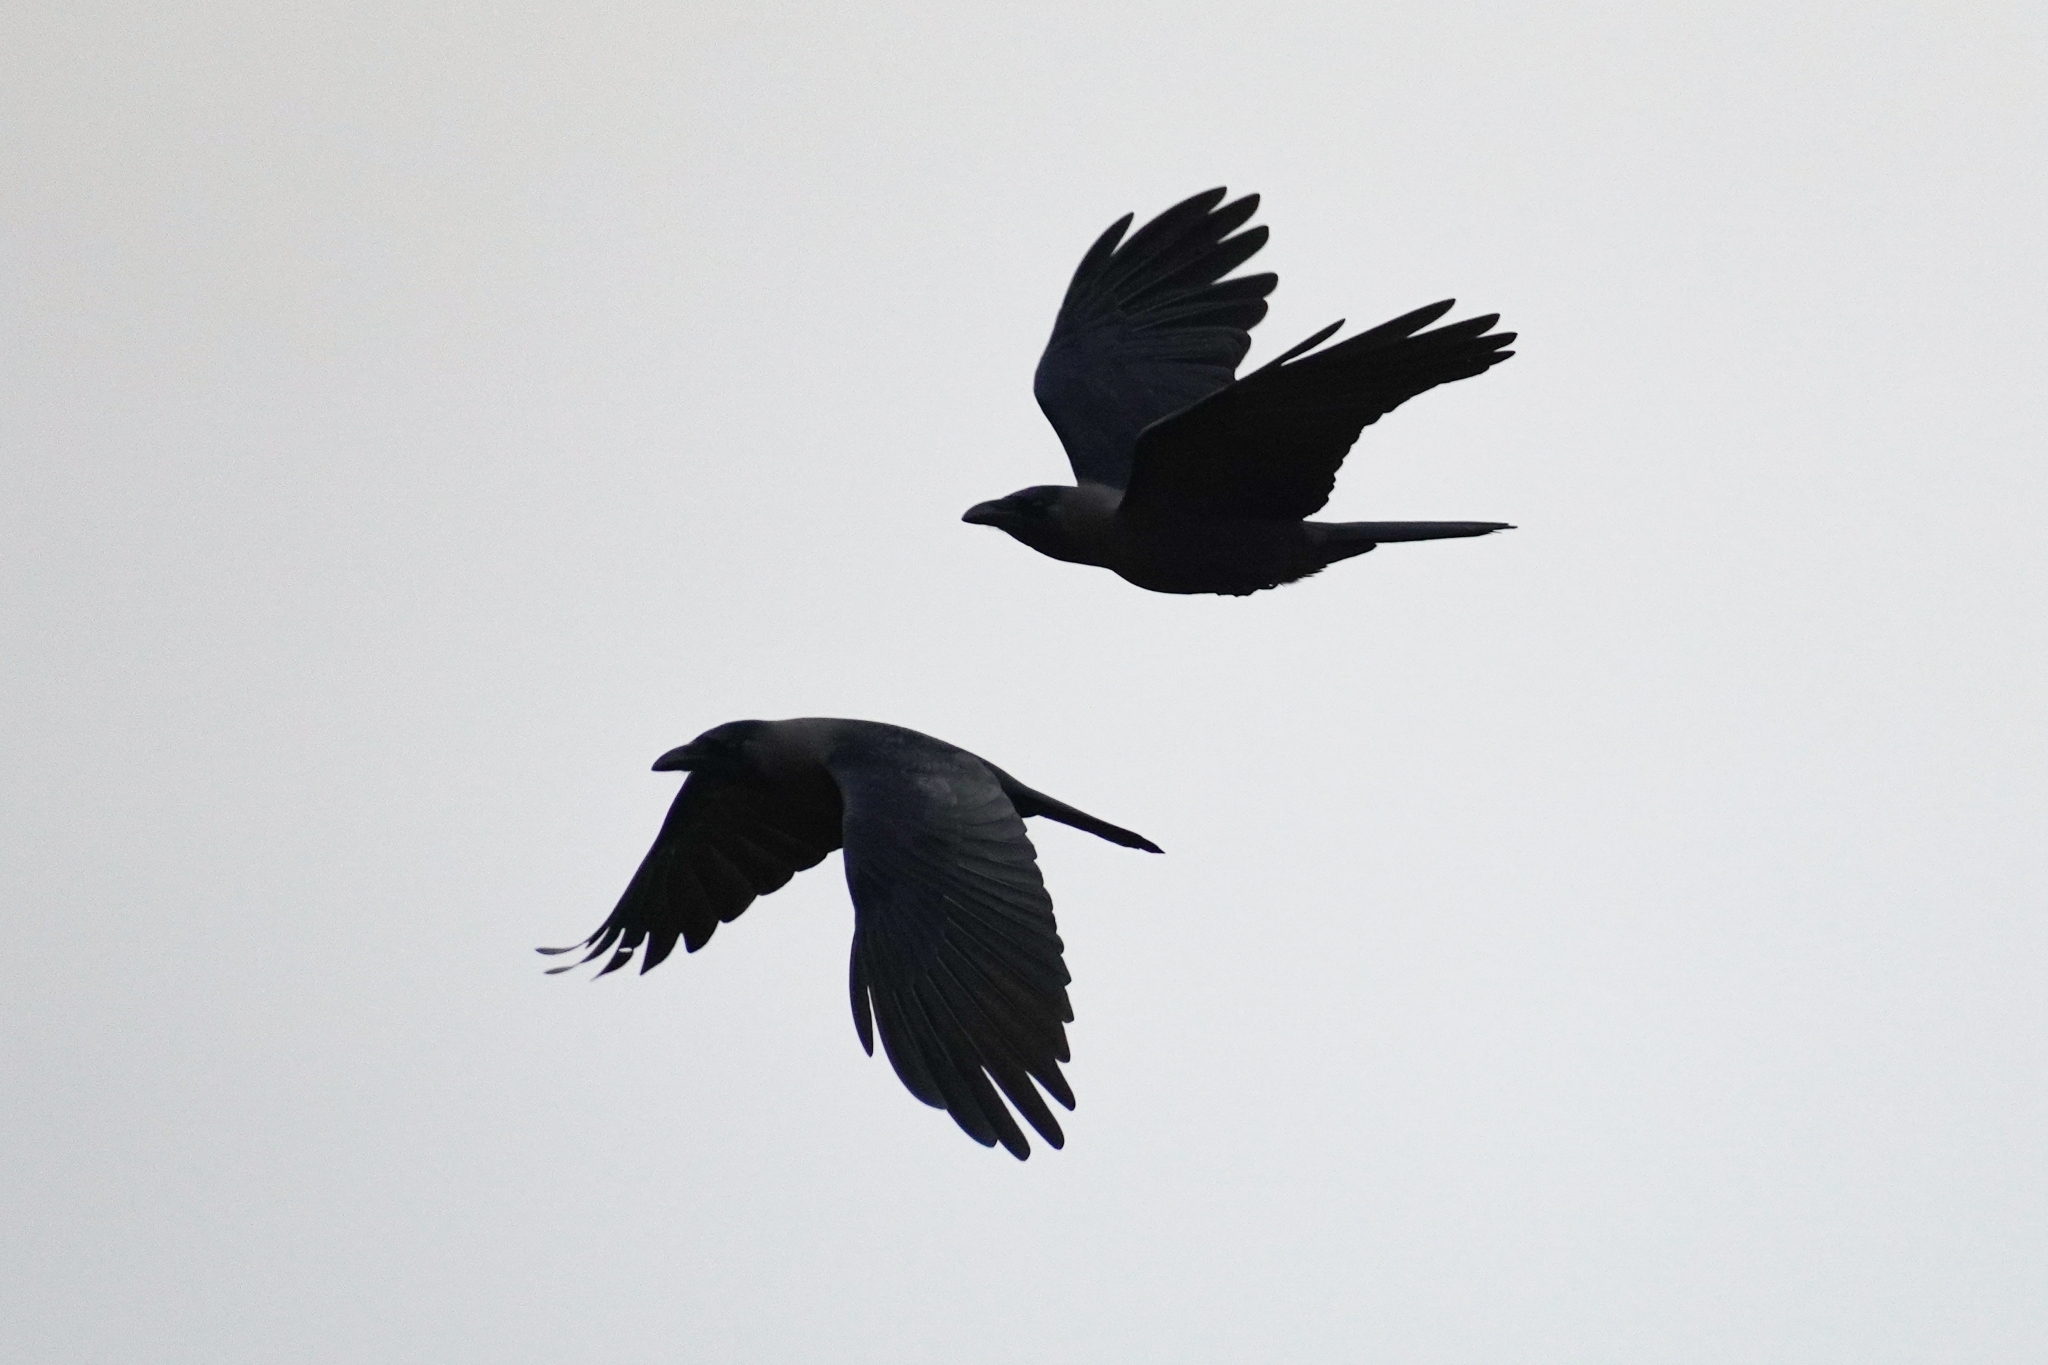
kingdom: Animalia
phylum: Chordata
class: Aves
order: Passeriformes
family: Corvidae
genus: Corvus
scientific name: Corvus splendens
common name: House crow
